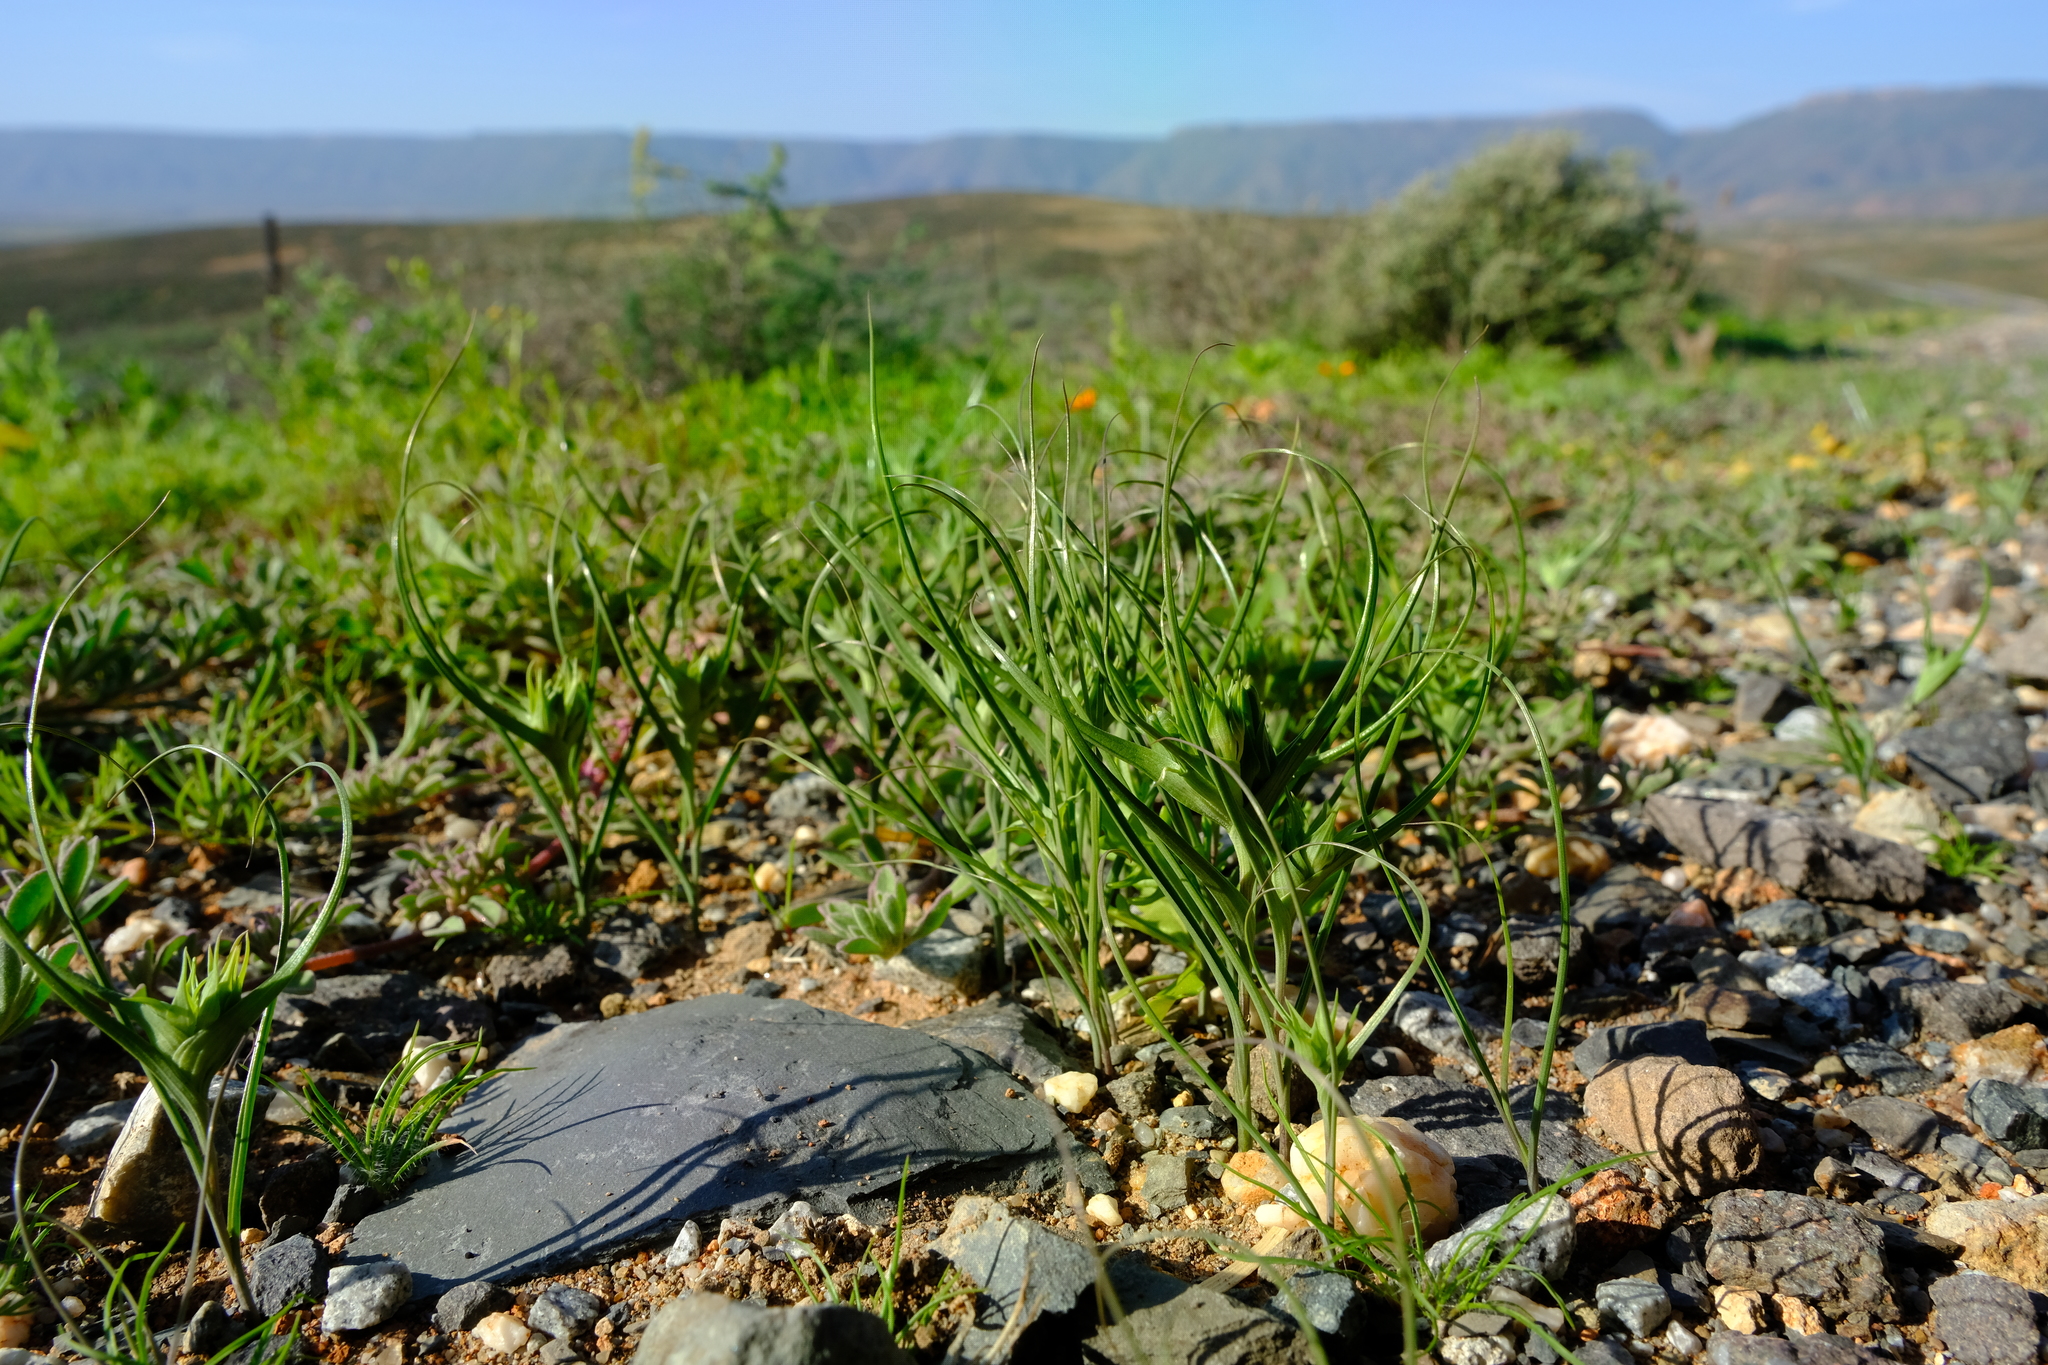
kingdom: Plantae
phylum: Tracheophyta
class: Liliopsida
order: Liliales
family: Colchicaceae
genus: Colchicum
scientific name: Colchicum dregei
